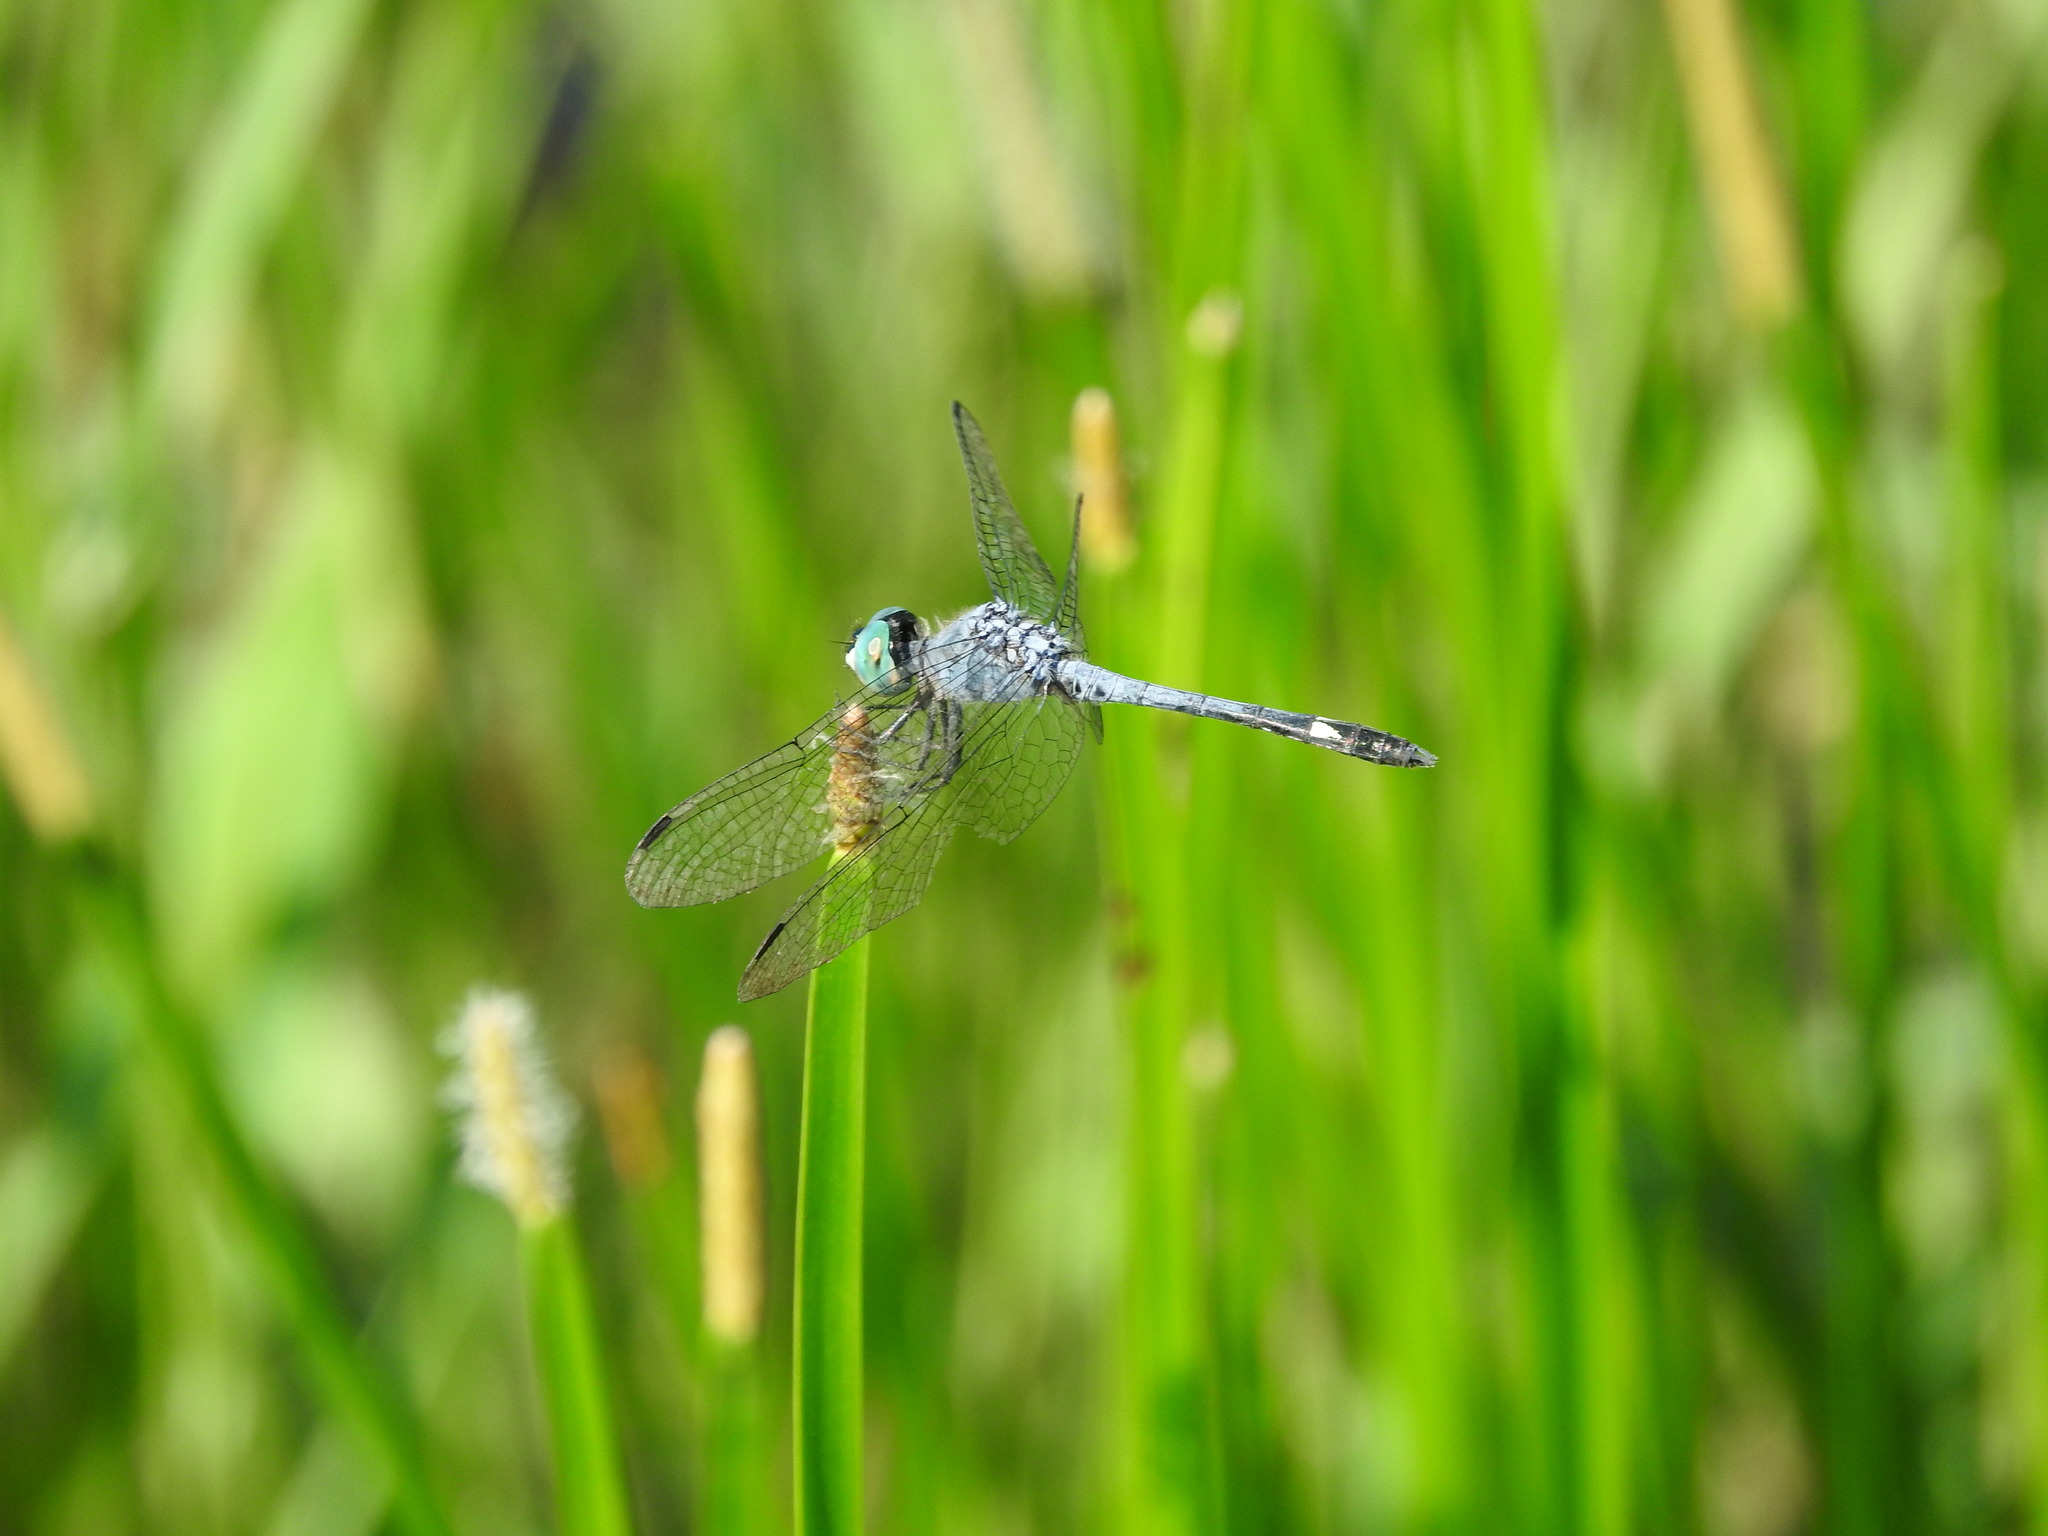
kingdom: Animalia
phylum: Arthropoda
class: Insecta
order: Odonata
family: Libellulidae
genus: Micrathyria
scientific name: Micrathyria aequalis
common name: Spot-tailed dasher
